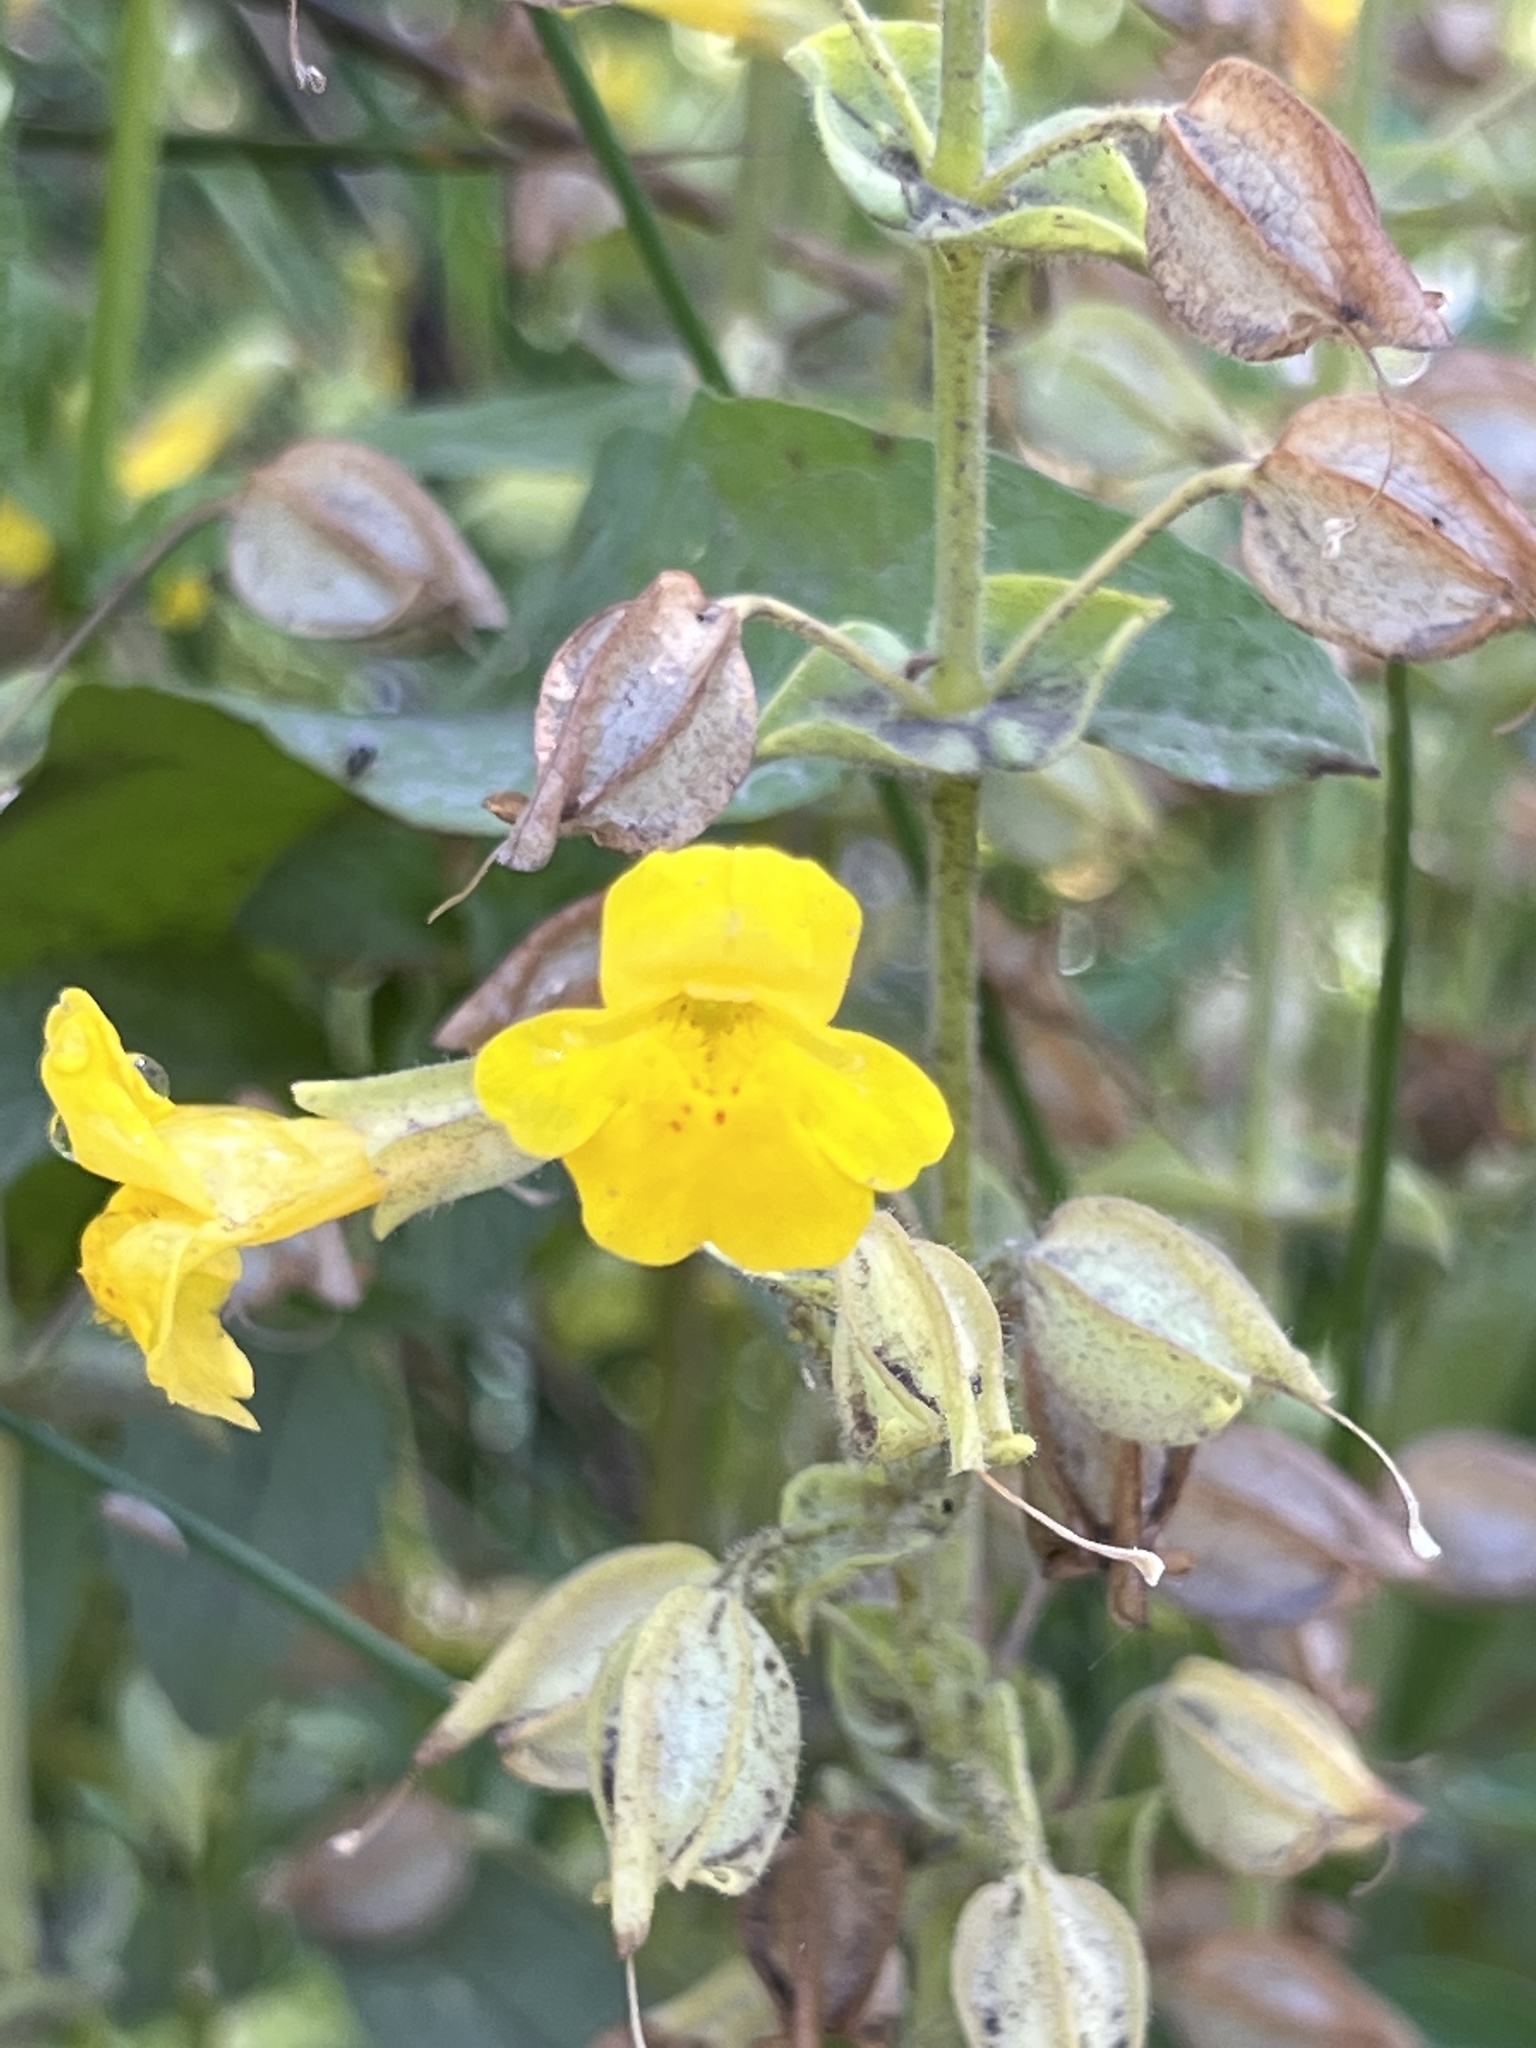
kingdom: Plantae
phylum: Tracheophyta
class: Magnoliopsida
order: Lamiales
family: Phrymaceae
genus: Erythranthe
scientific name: Erythranthe guttata
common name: Monkeyflower
